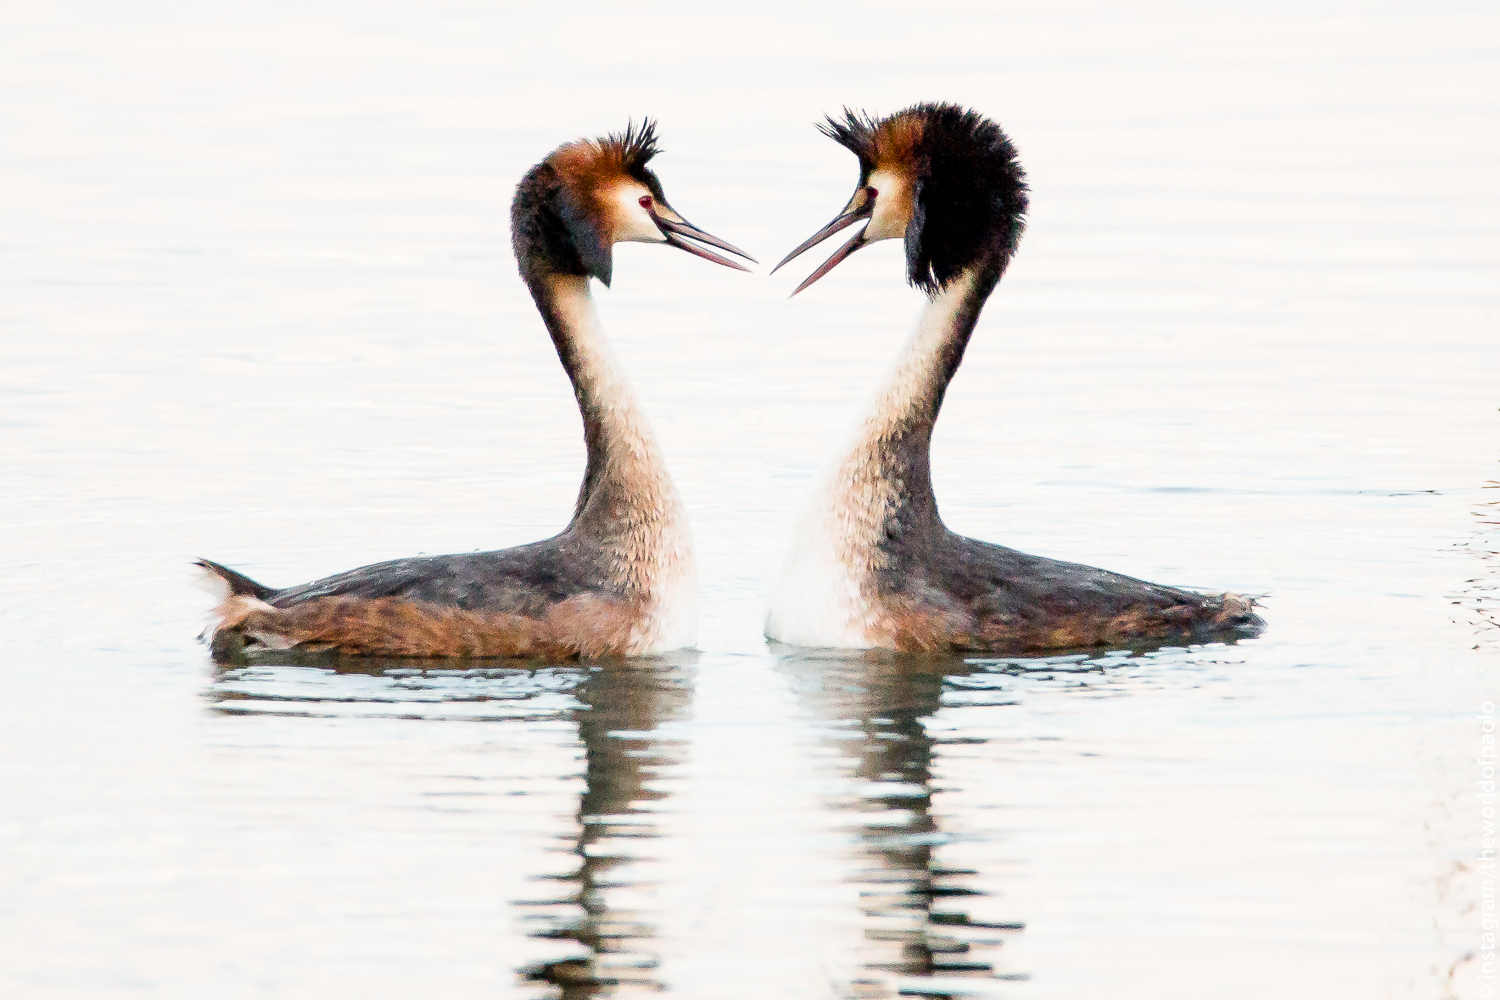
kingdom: Animalia
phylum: Chordata
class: Aves
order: Podicipediformes
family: Podicipedidae
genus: Podiceps
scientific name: Podiceps cristatus
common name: Great crested grebe
